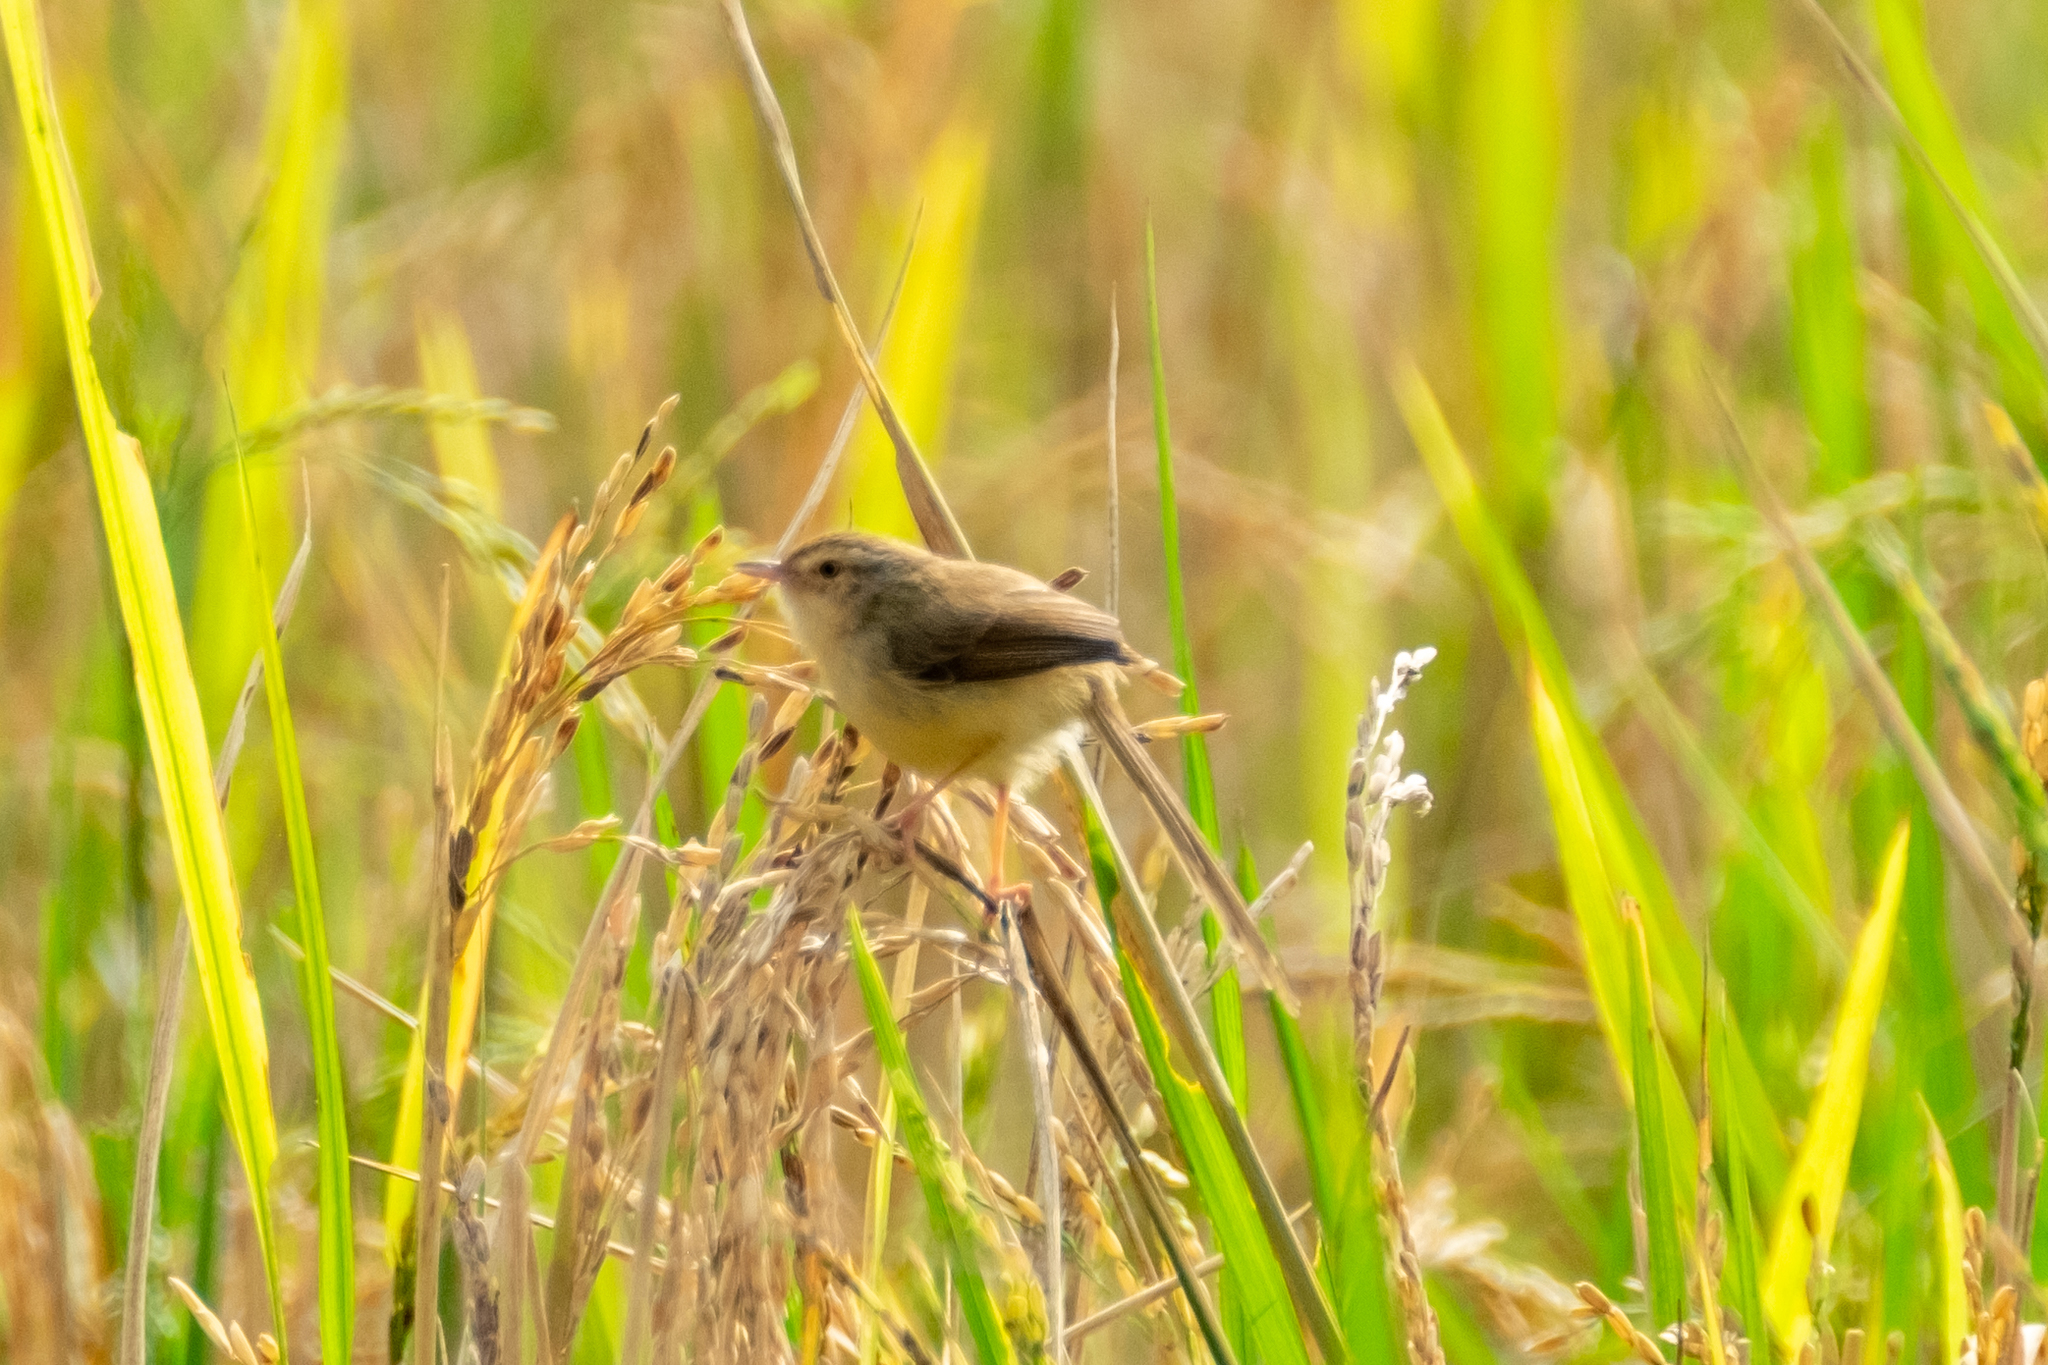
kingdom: Animalia
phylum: Chordata
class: Aves
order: Passeriformes
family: Cisticolidae
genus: Prinia
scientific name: Prinia inornata
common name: Plain prinia
